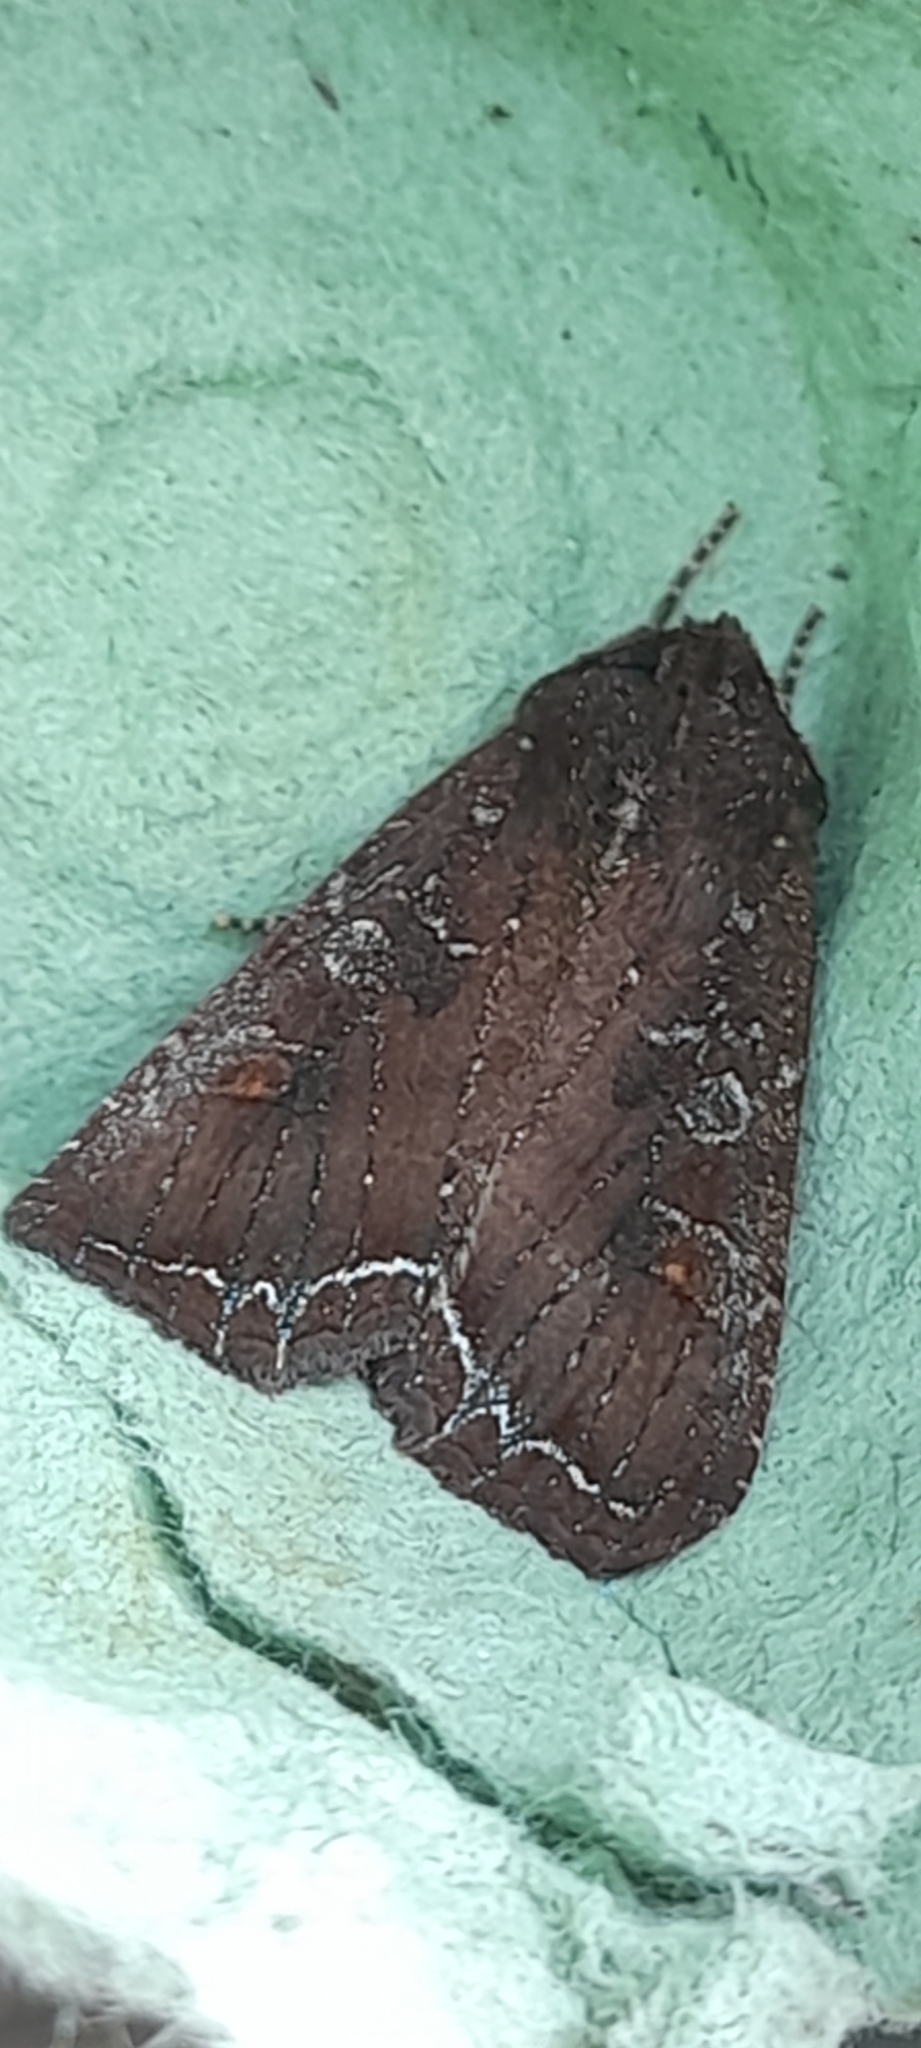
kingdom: Animalia
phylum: Arthropoda
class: Insecta
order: Lepidoptera
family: Noctuidae
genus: Lacanobia
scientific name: Lacanobia oleracea
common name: Bright-line brown-eye
